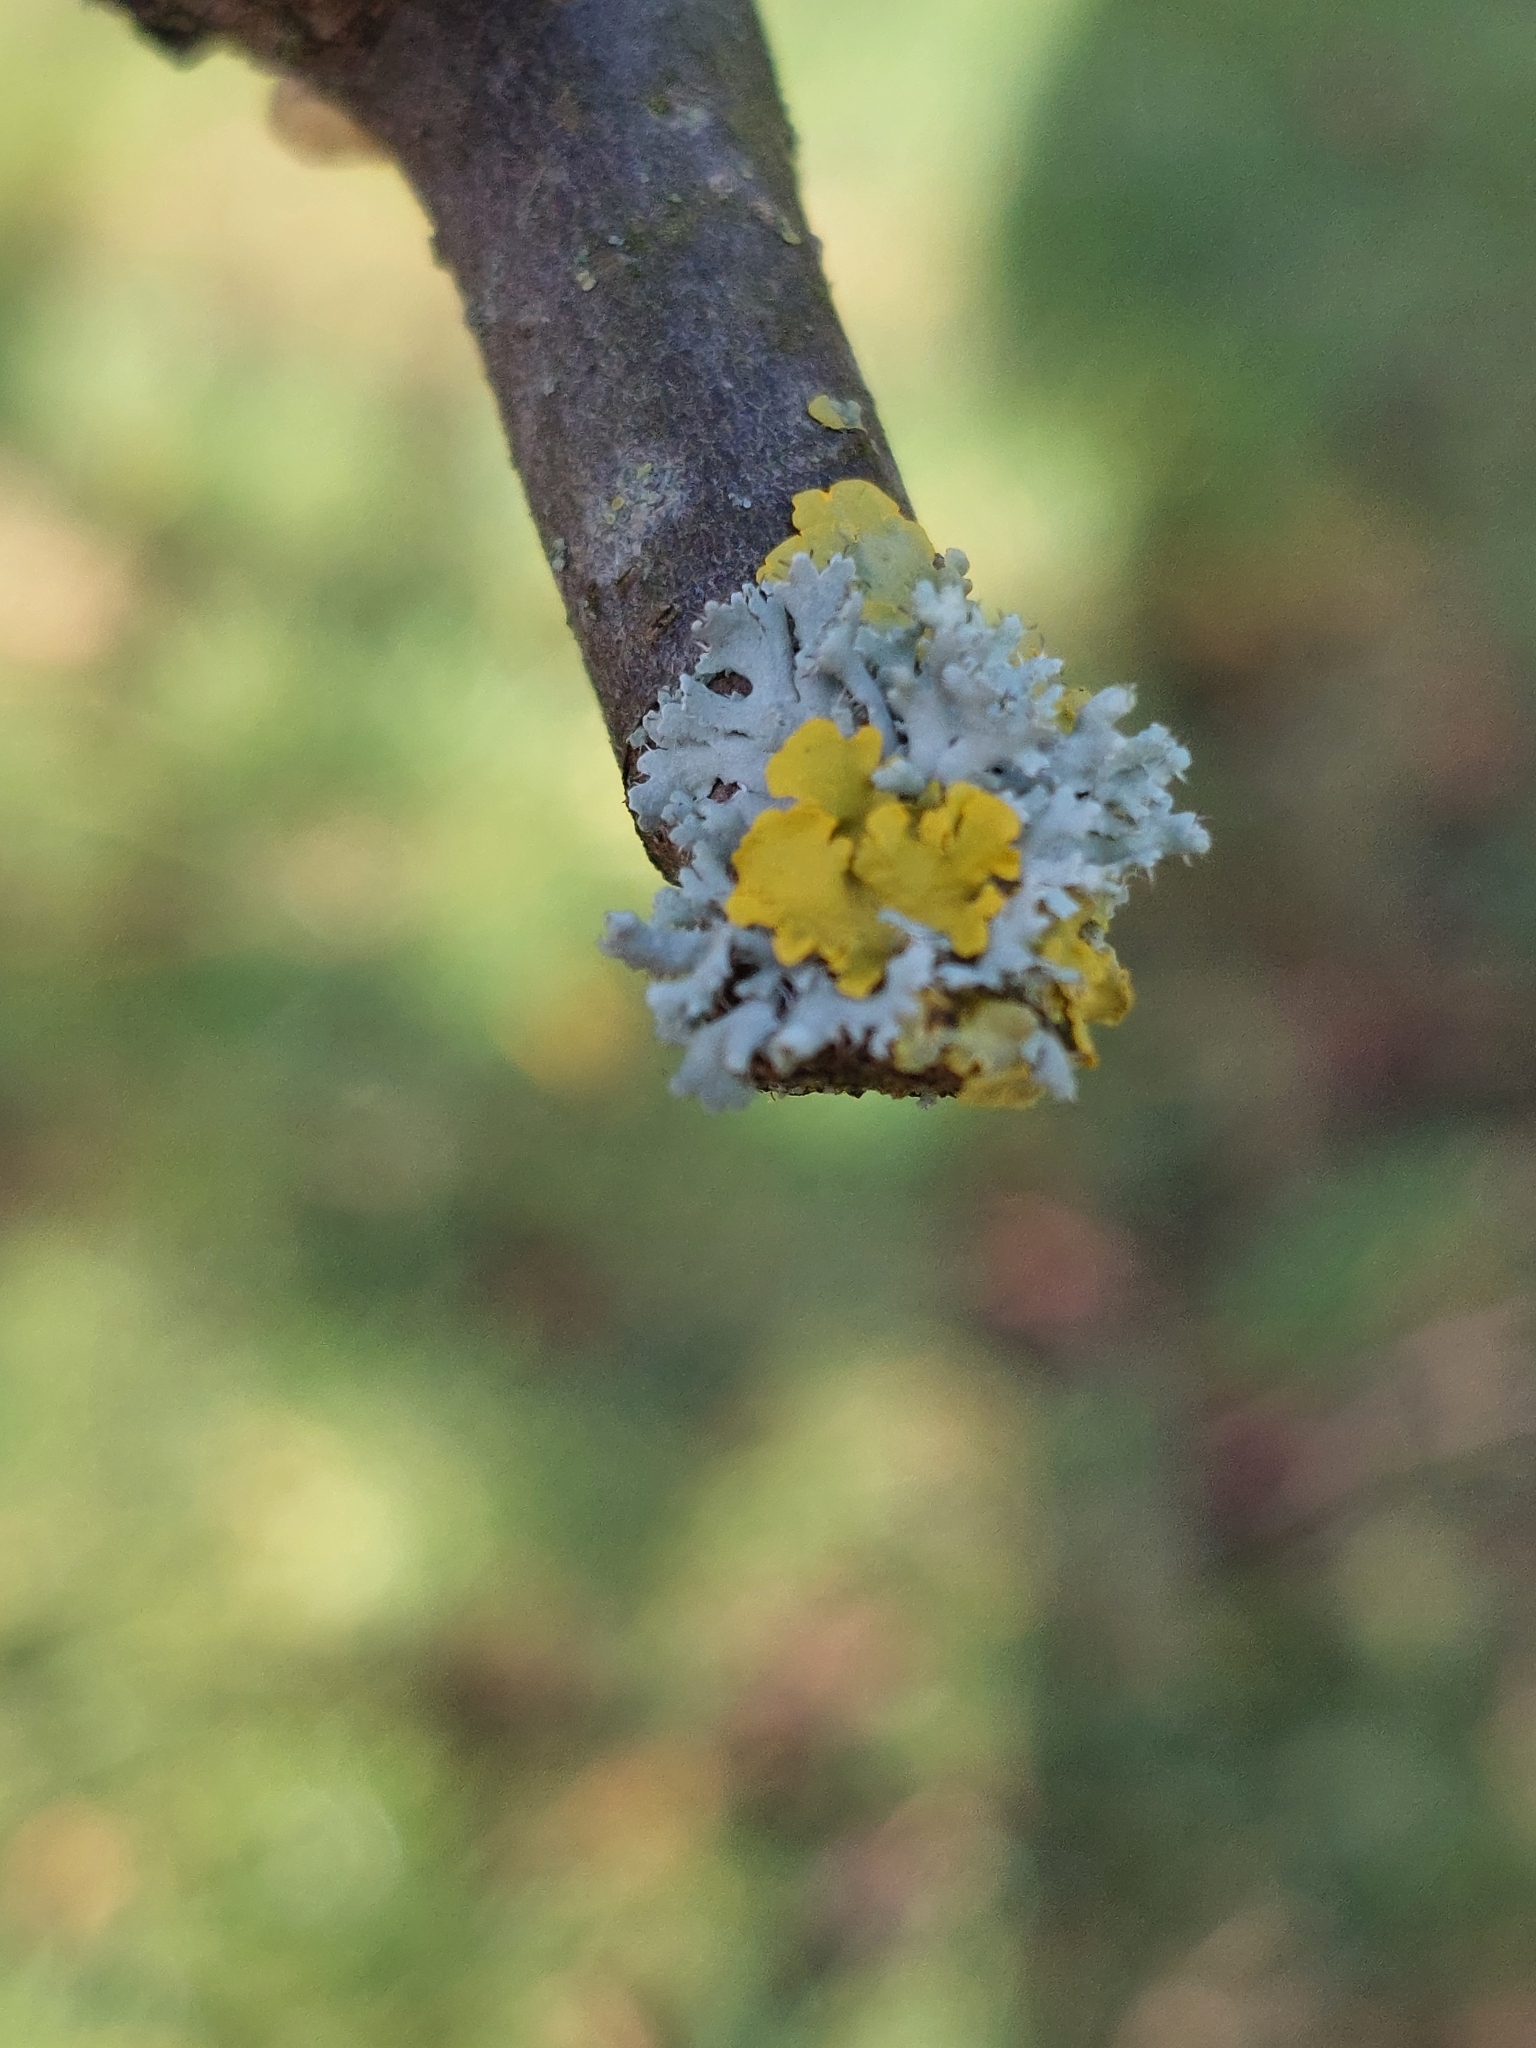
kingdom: Fungi
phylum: Ascomycota
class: Lecanoromycetes
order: Caliciales
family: Physciaceae
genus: Physcia
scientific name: Physcia adscendens
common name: Hooded rosette lichen
